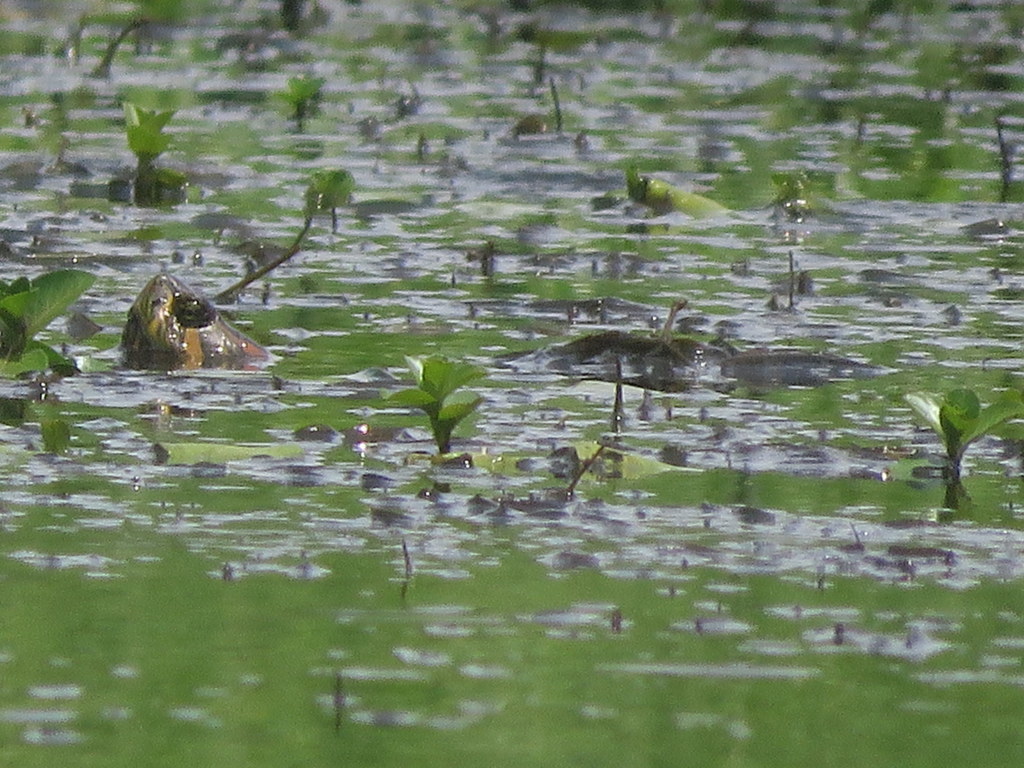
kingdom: Animalia
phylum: Chordata
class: Testudines
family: Emydidae
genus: Trachemys
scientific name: Trachemys dorbigni
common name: Black-bellied slider
